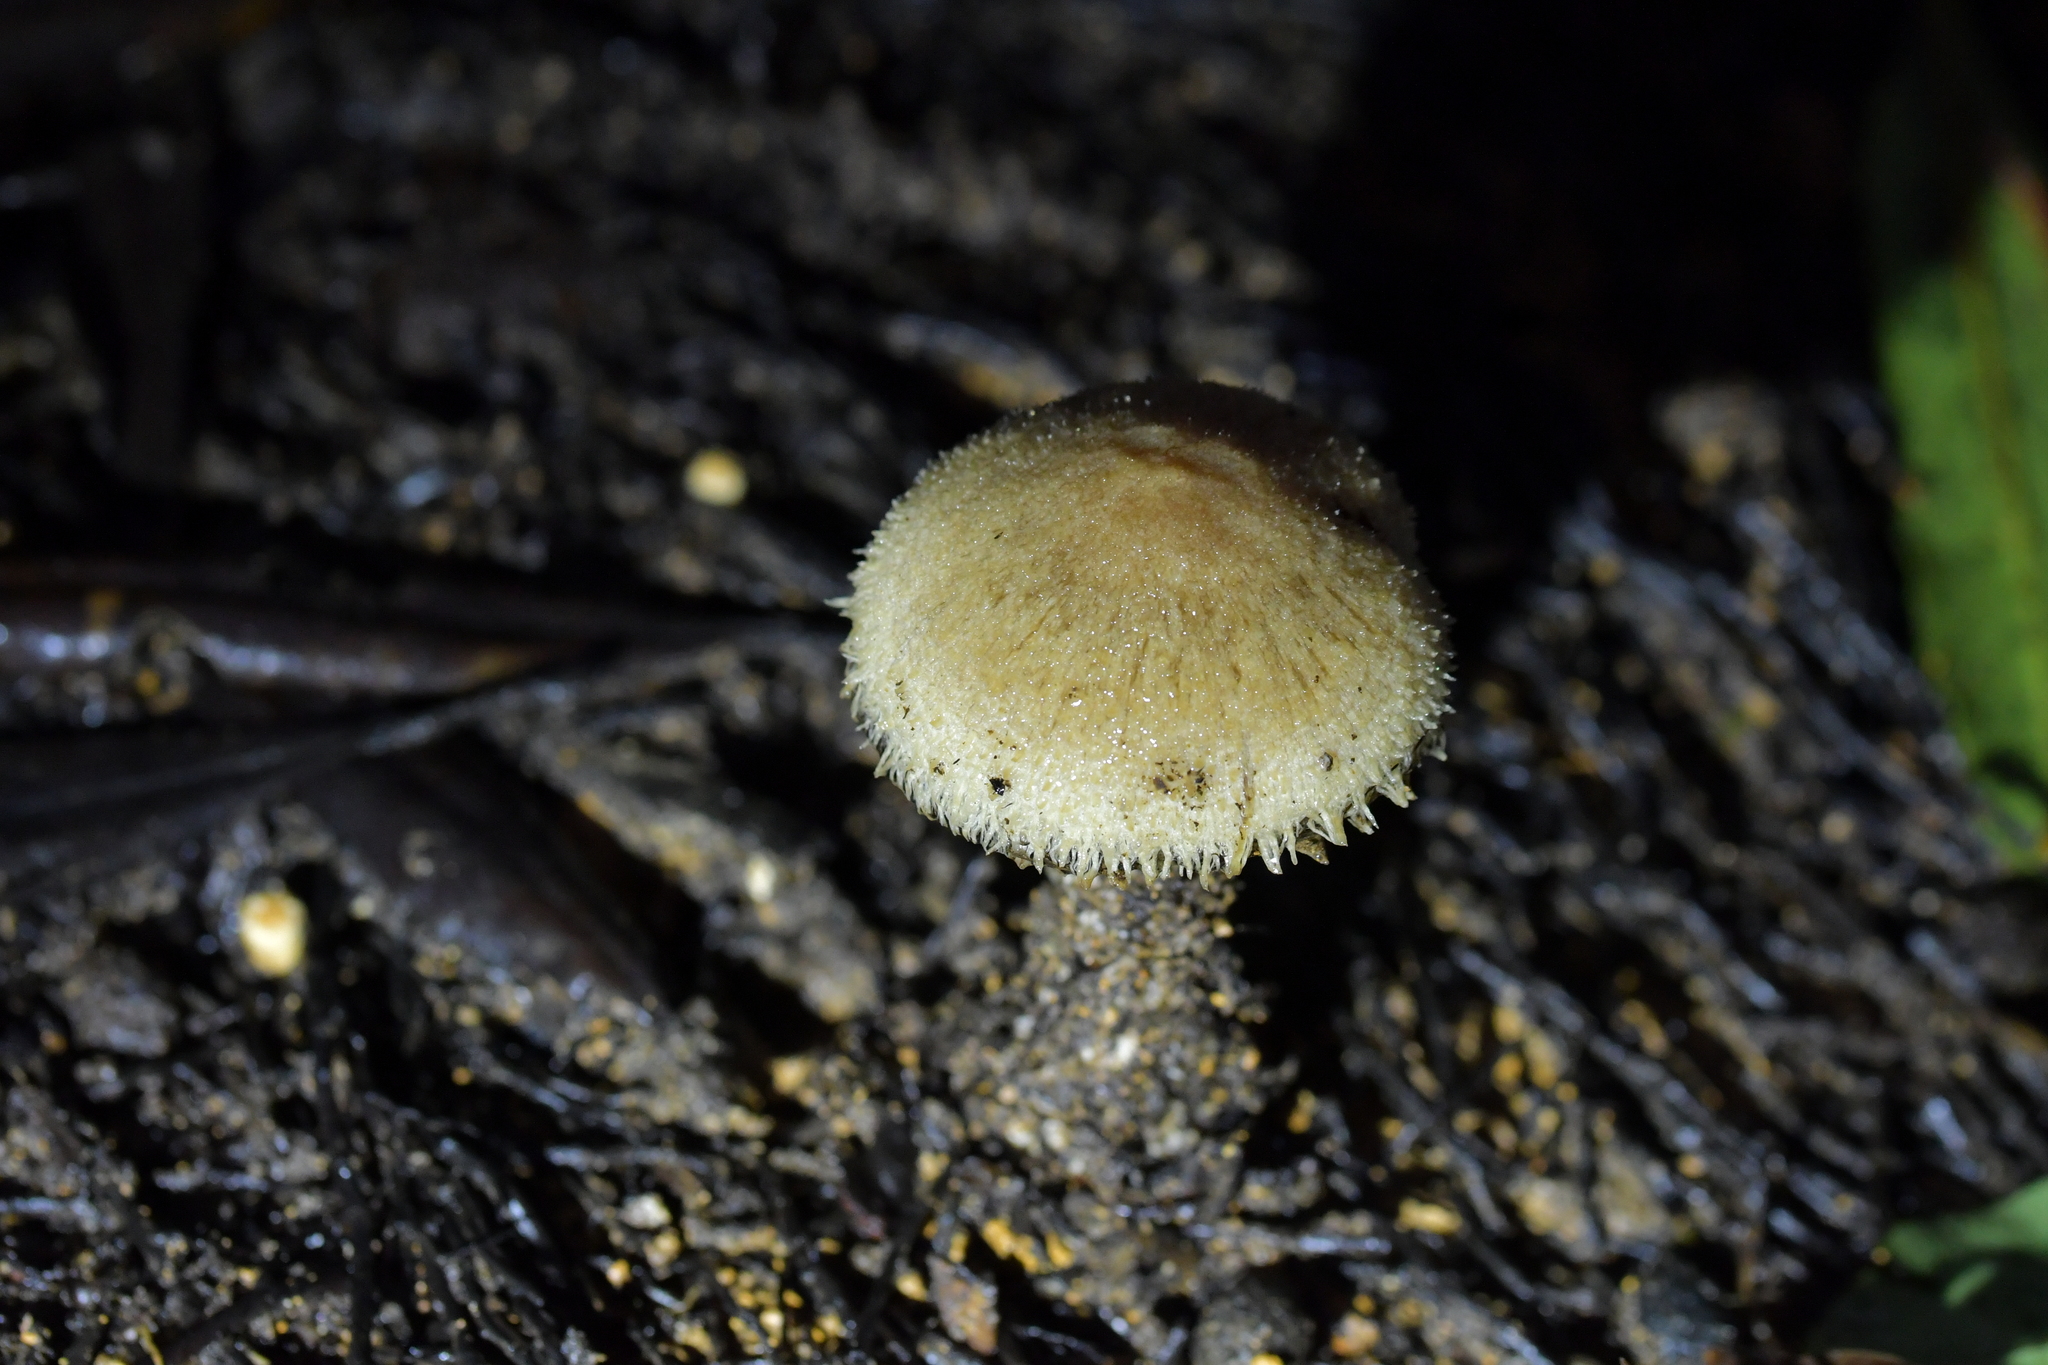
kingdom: Fungi
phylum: Basidiomycota
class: Agaricomycetes
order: Agaricales
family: Psathyrellaceae
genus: Psathyrella
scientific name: Psathyrella asperospora
